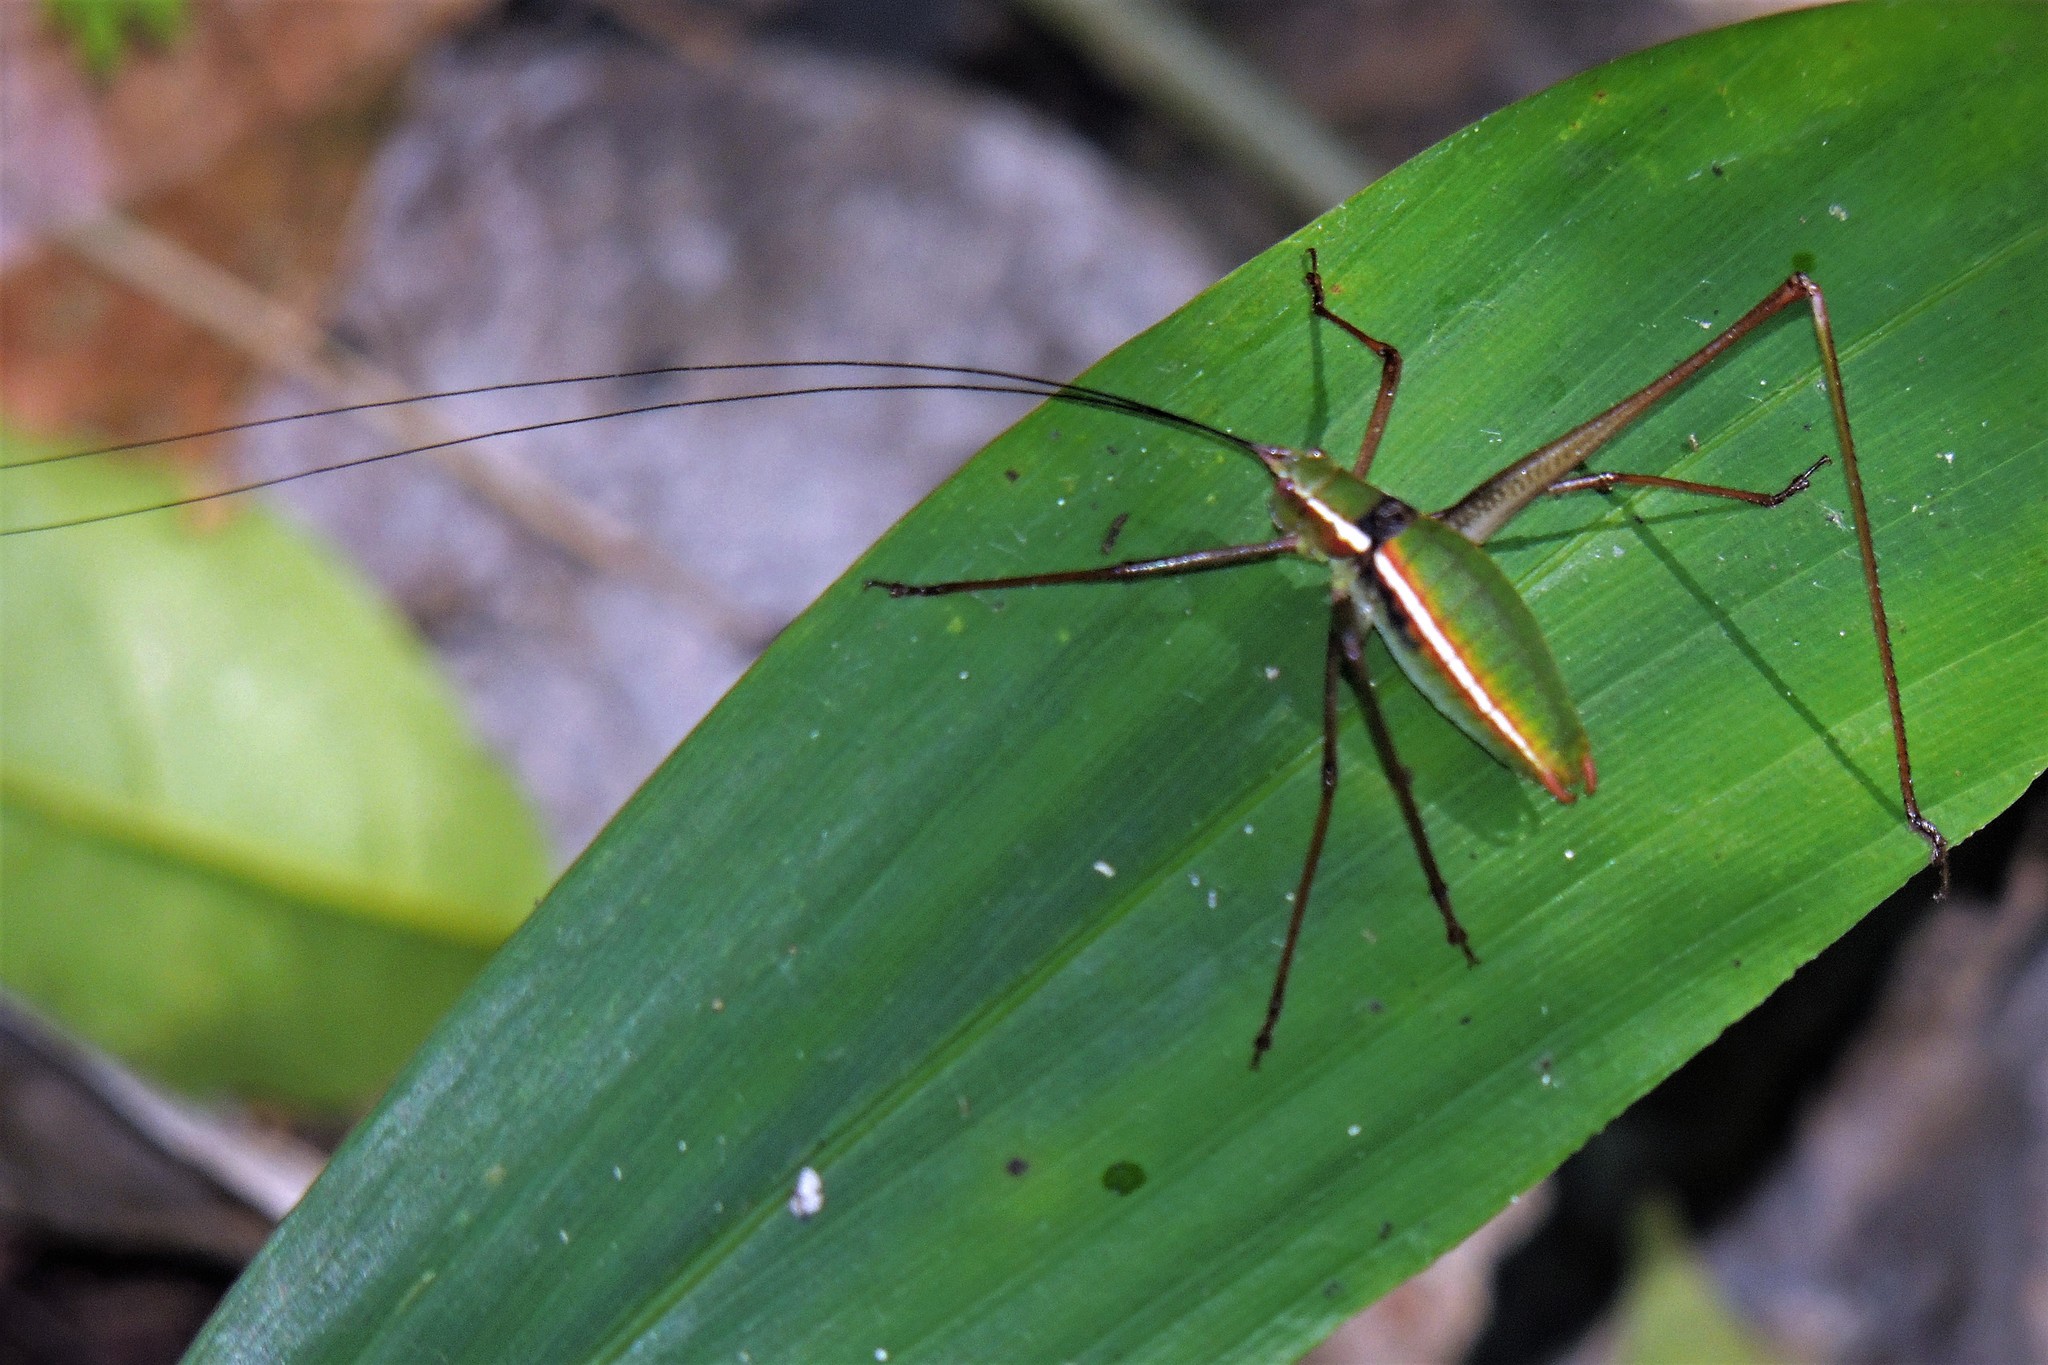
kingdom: Animalia
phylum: Arthropoda
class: Insecta
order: Orthoptera
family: Tettigoniidae
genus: Xenicola
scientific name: Xenicola xukrixi
